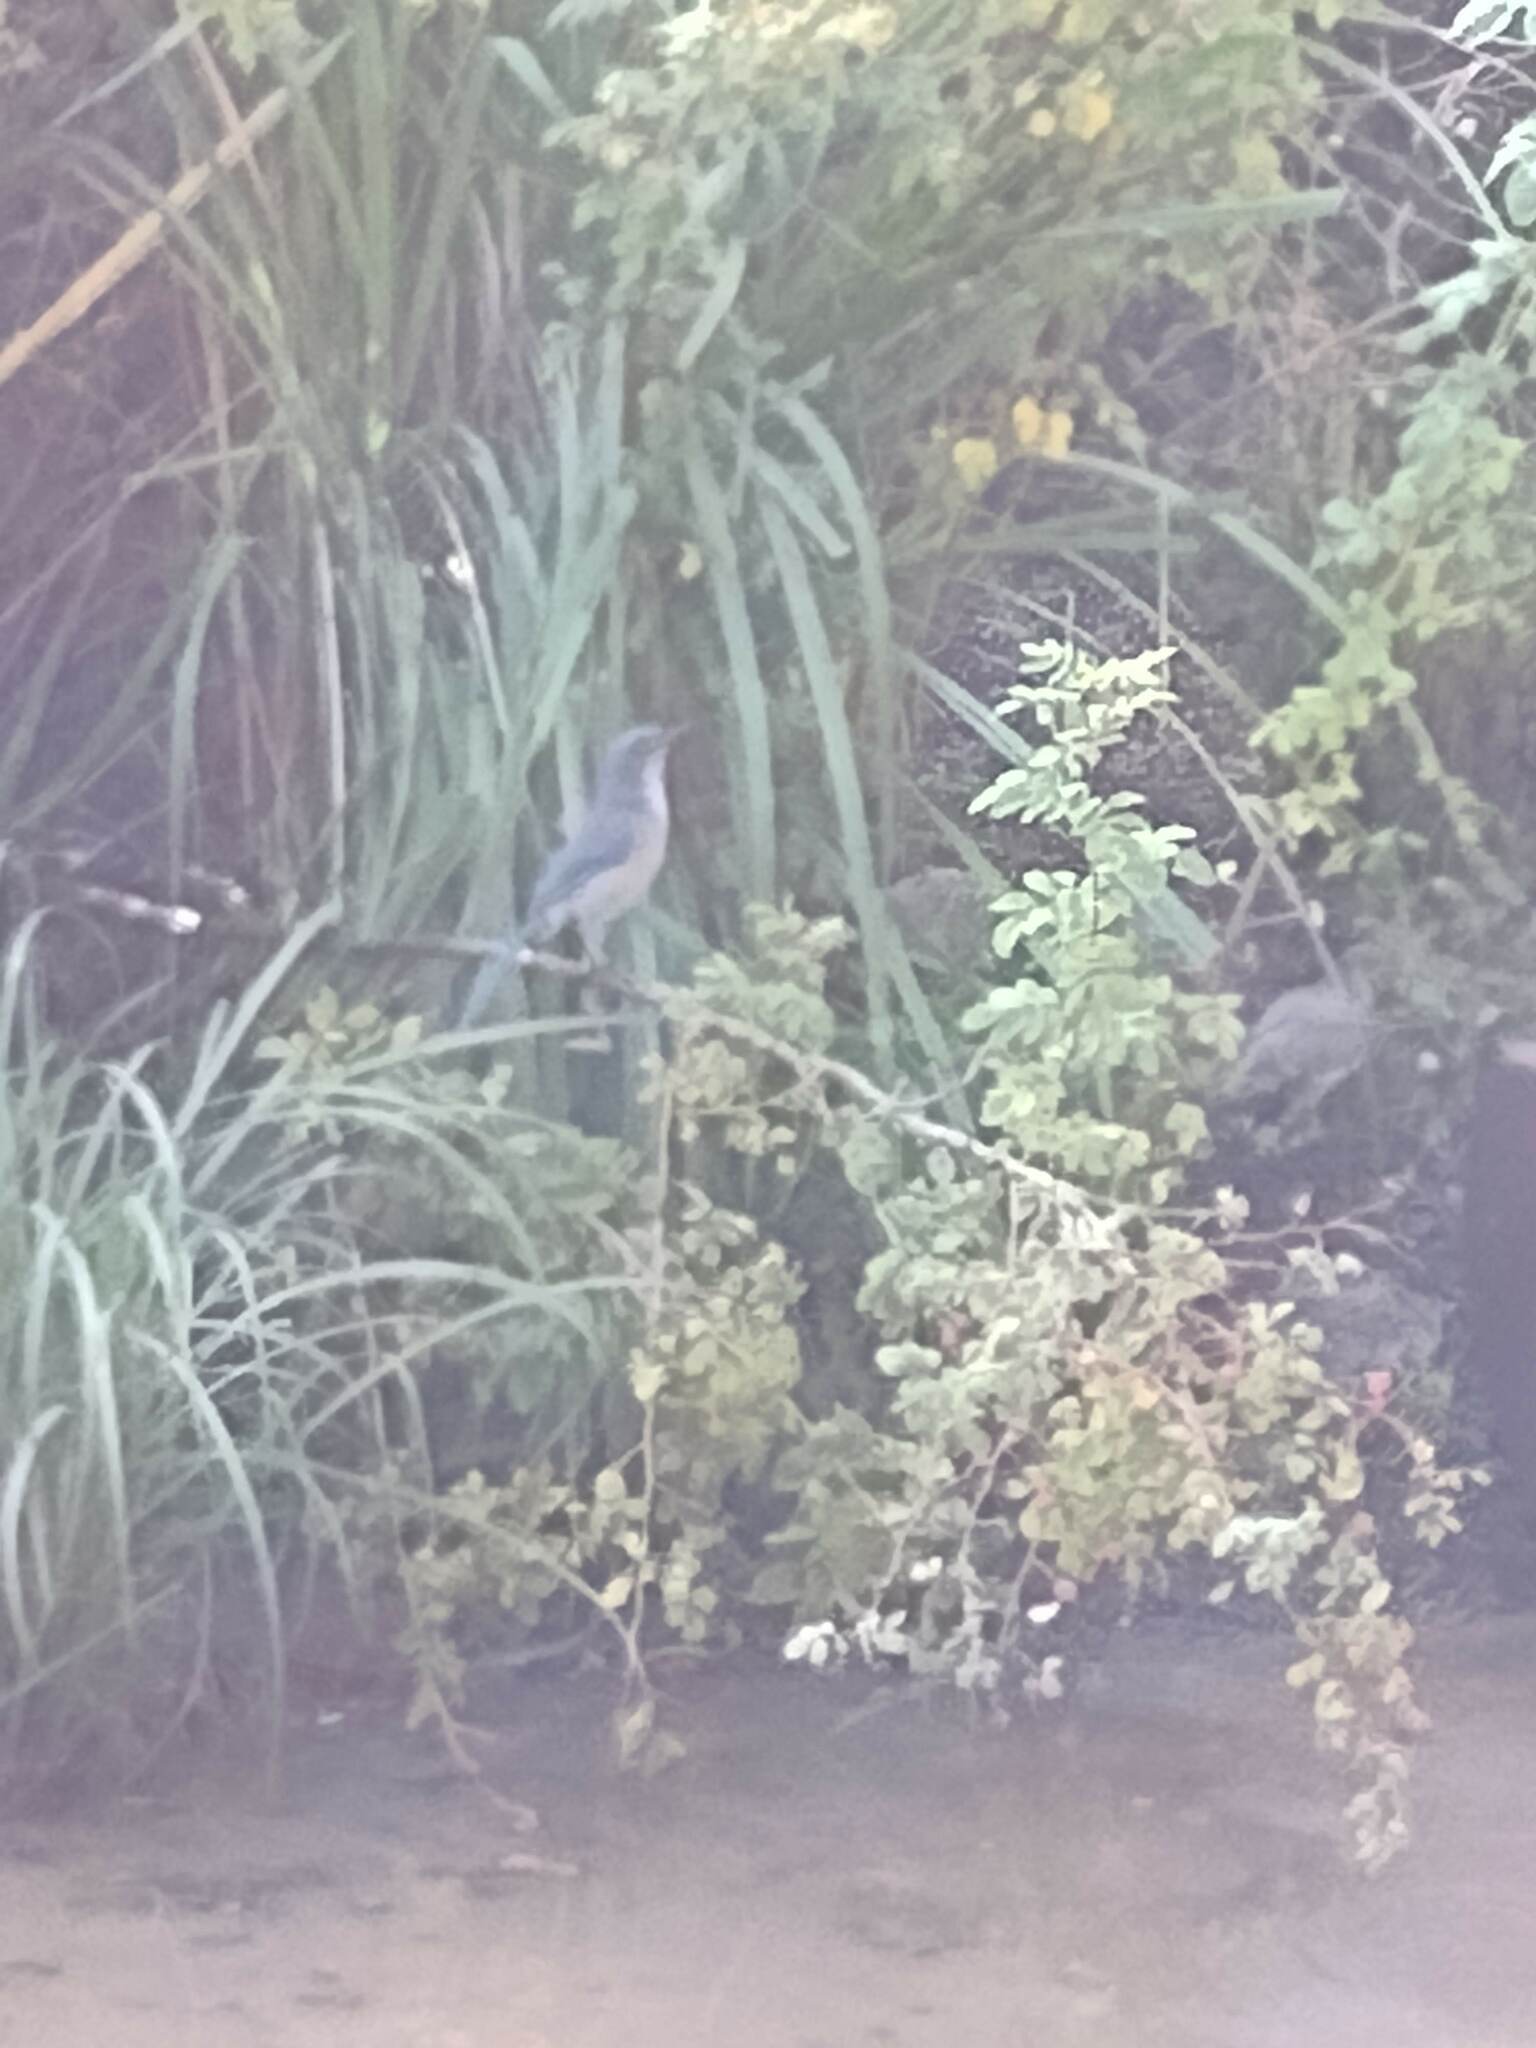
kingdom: Animalia
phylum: Chordata
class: Aves
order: Passeriformes
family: Corvidae
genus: Aphelocoma
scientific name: Aphelocoma woodhouseii
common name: Woodhouse's scrub-jay
